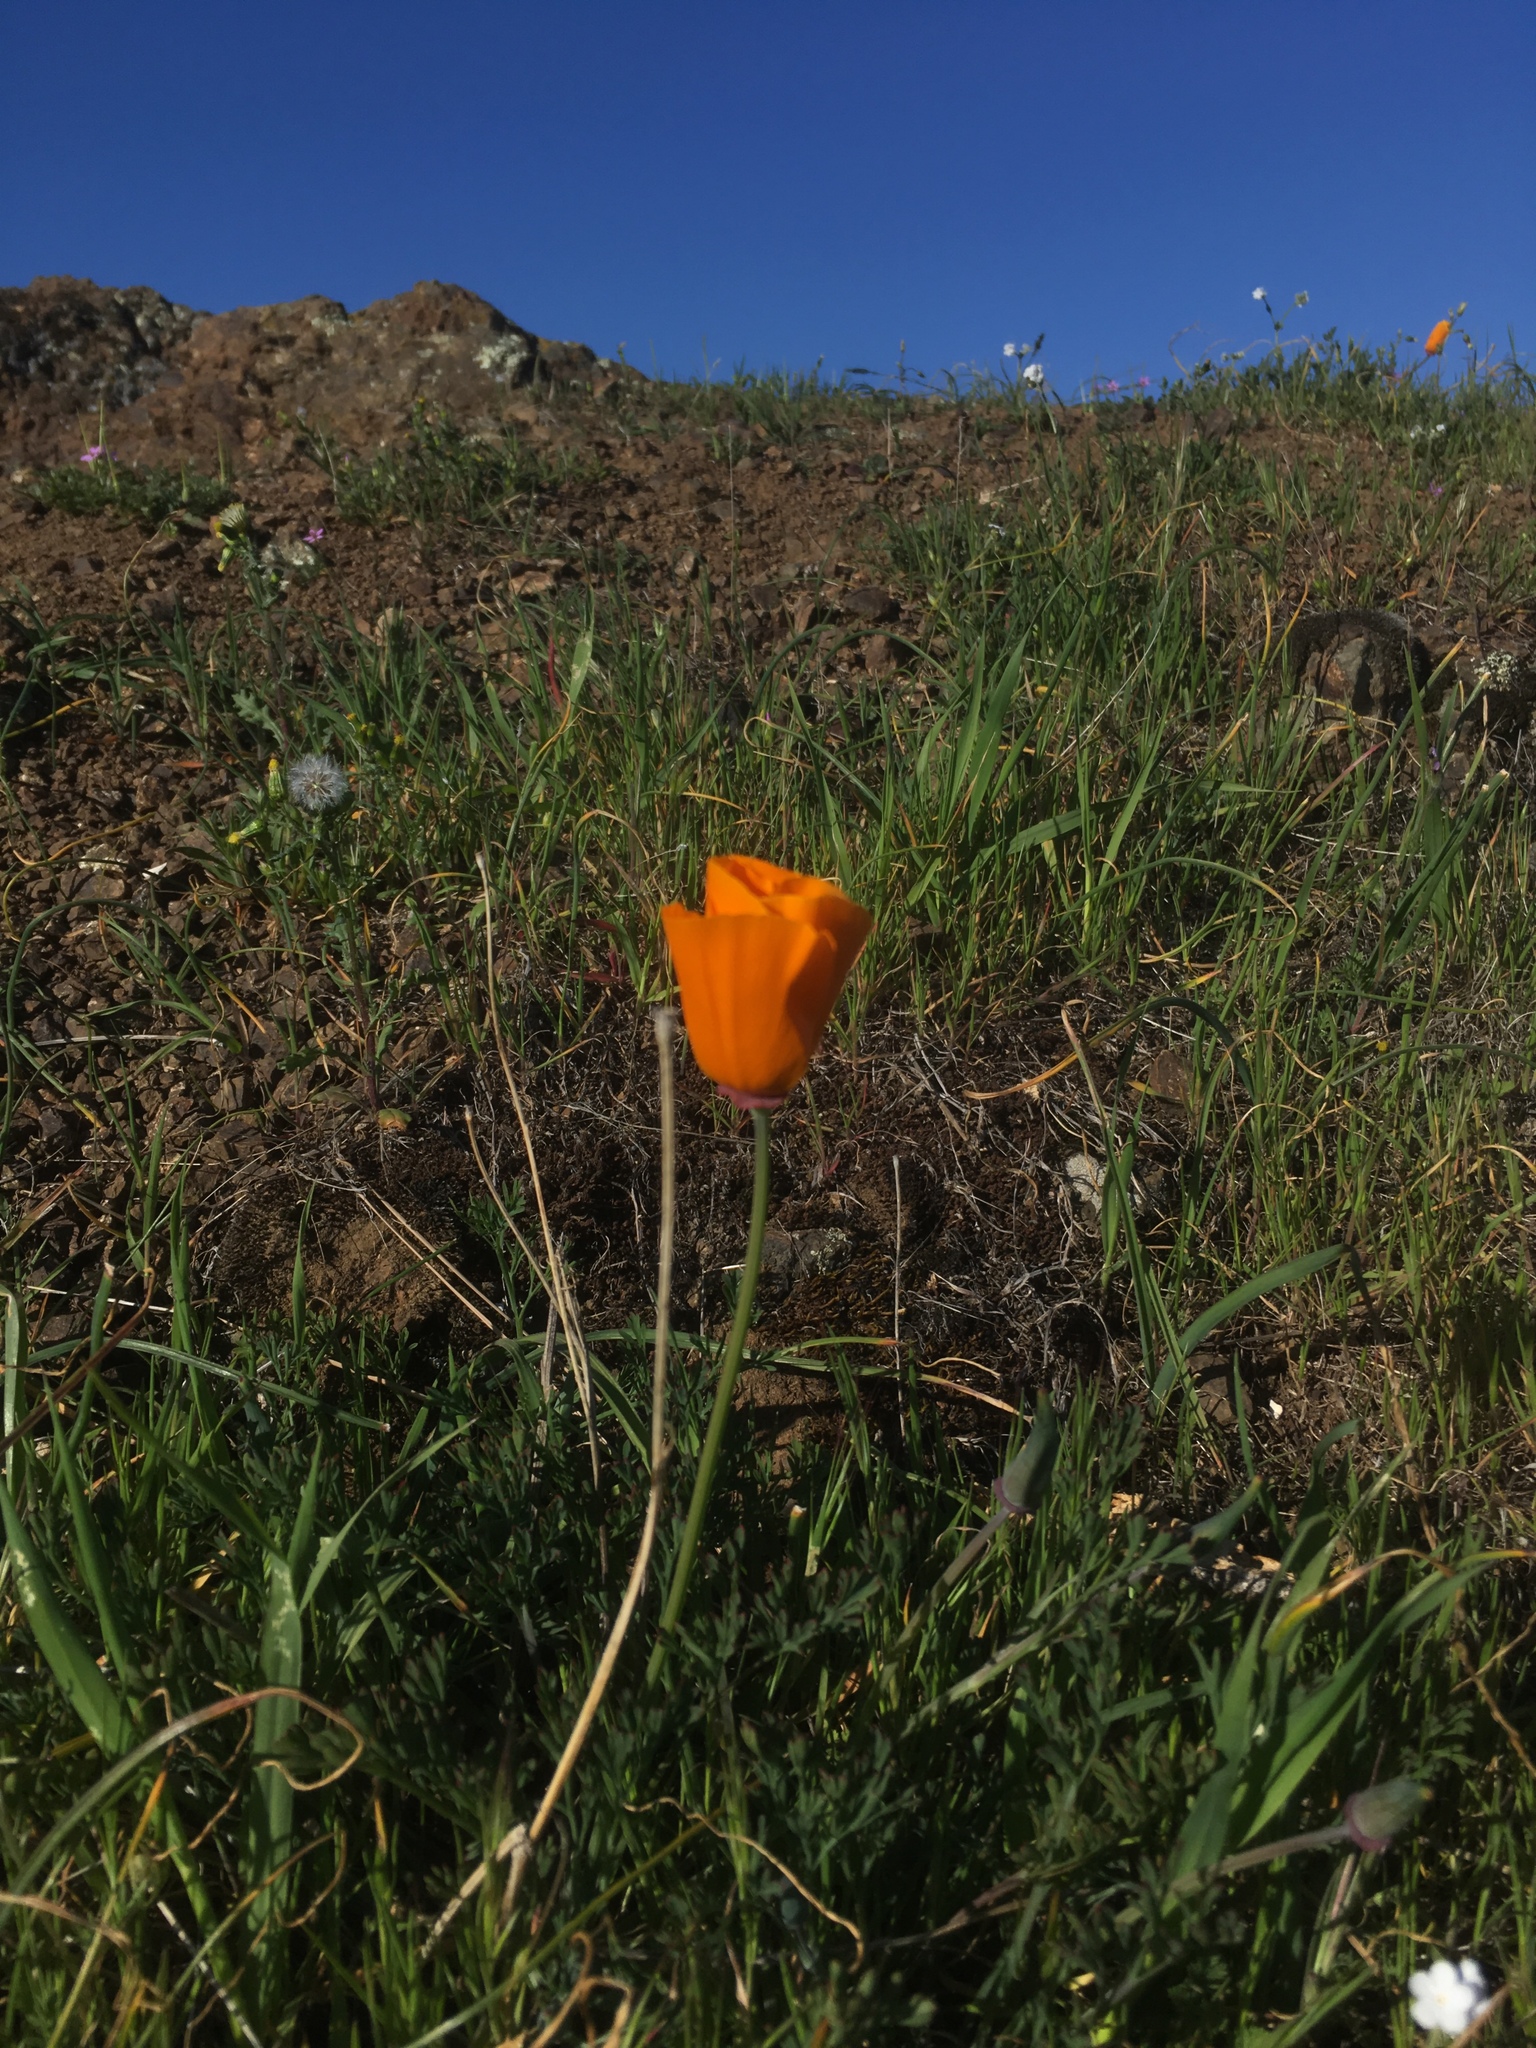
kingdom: Plantae
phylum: Tracheophyta
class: Magnoliopsida
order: Ranunculales
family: Papaveraceae
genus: Eschscholzia
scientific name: Eschscholzia californica
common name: California poppy
